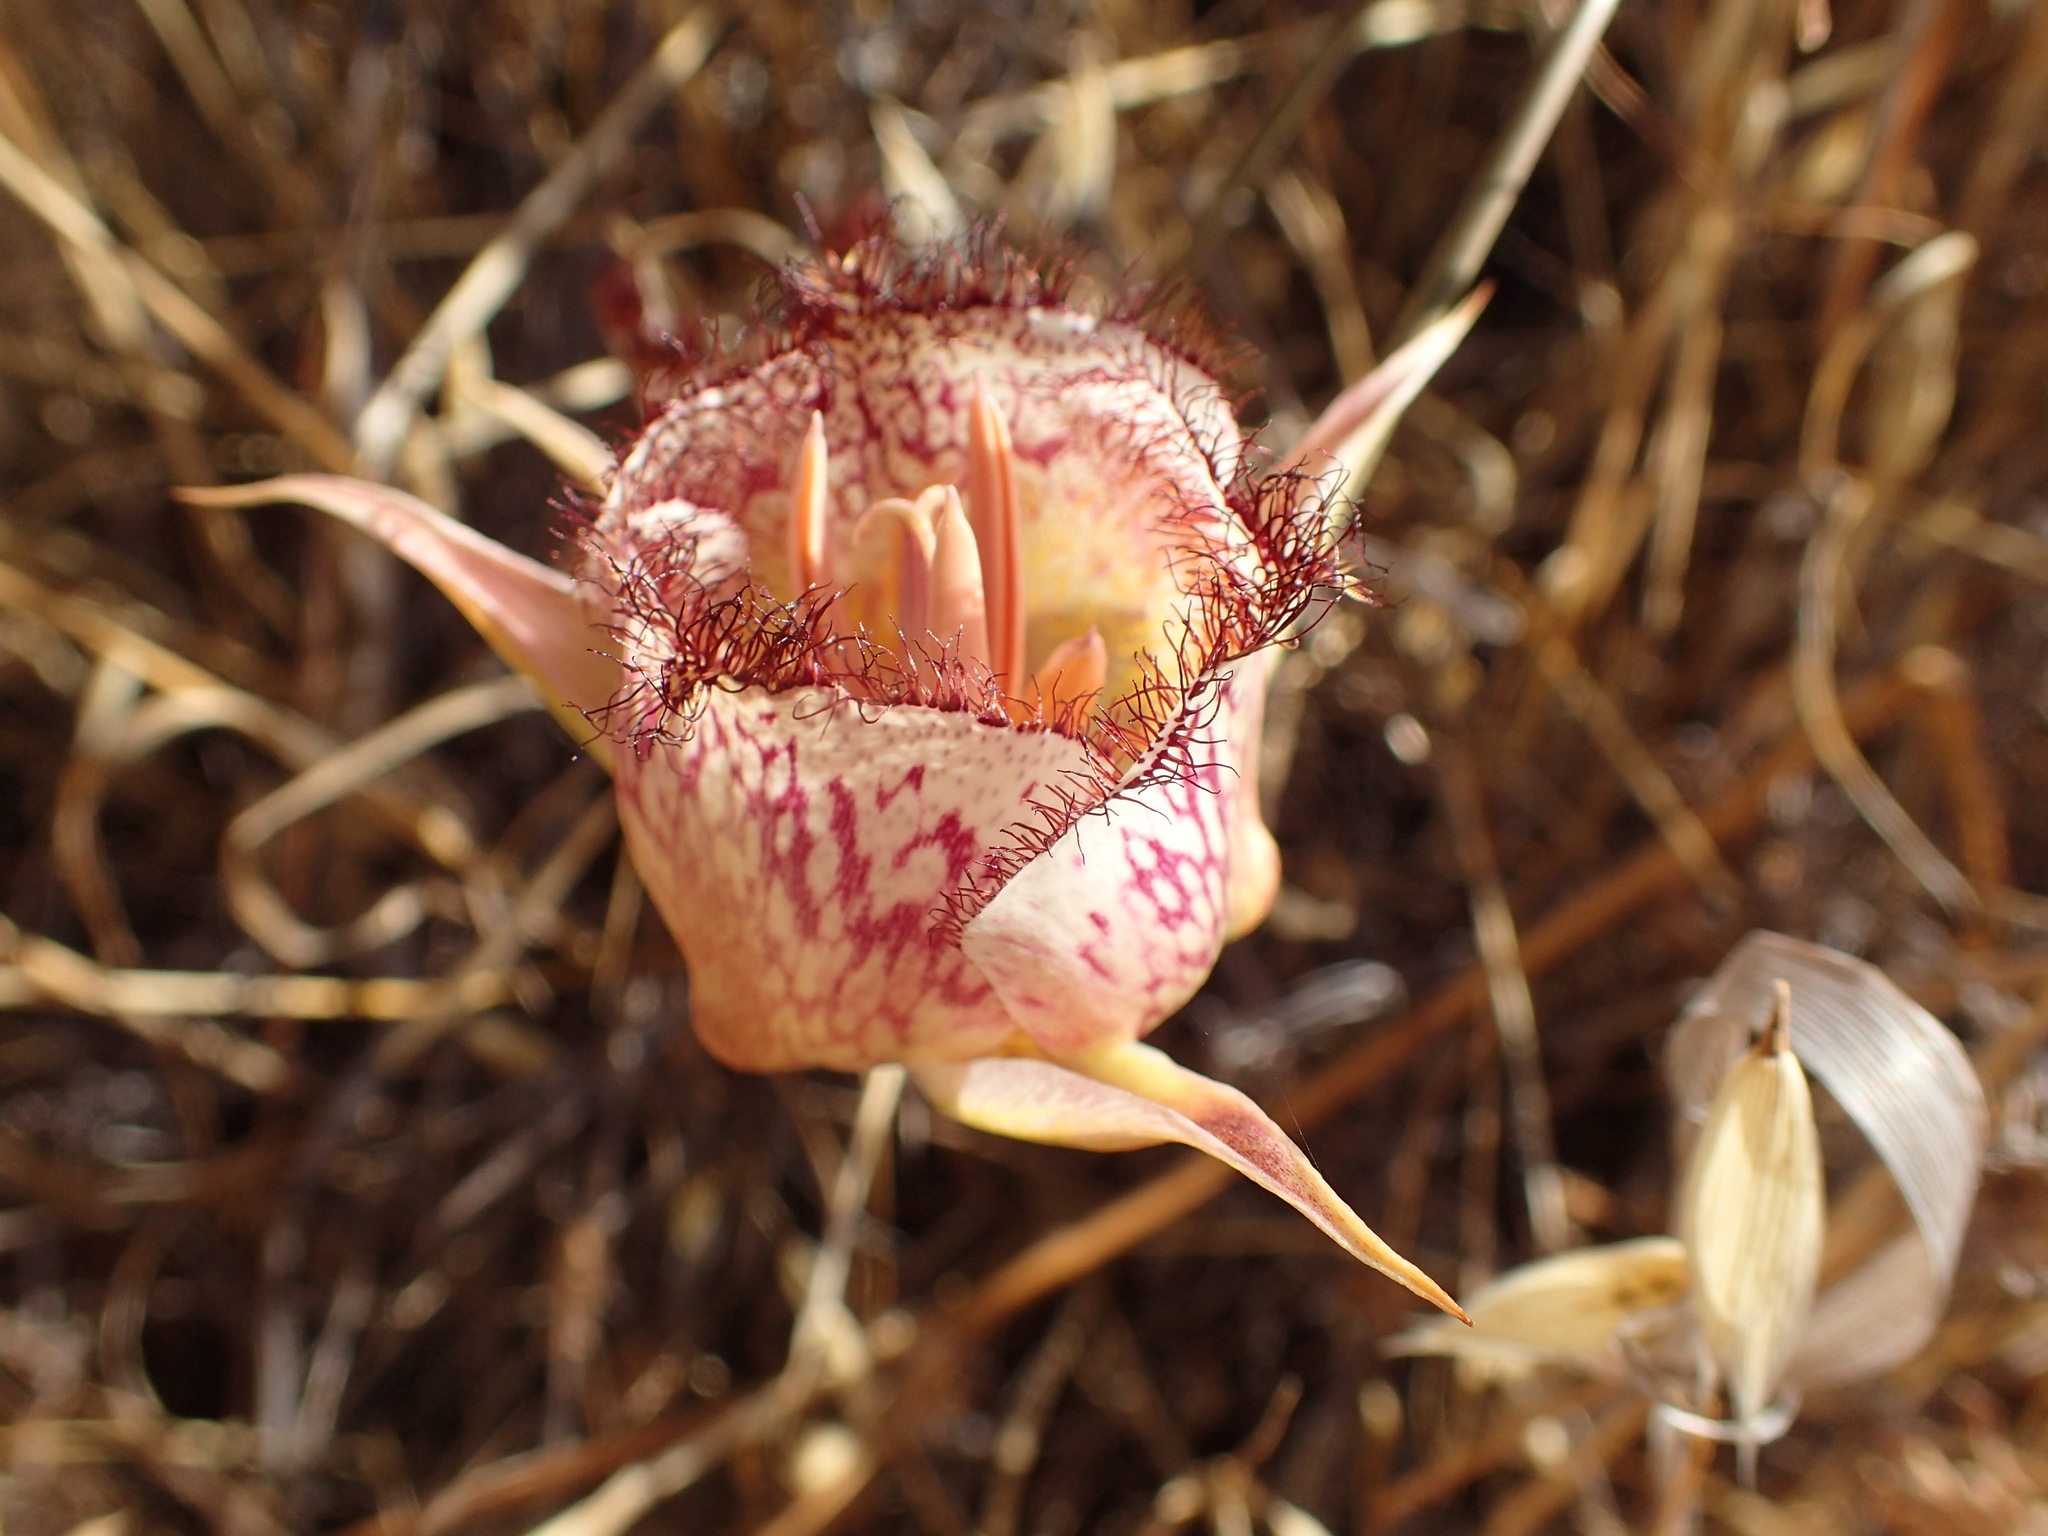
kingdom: Plantae
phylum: Tracheophyta
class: Liliopsida
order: Liliales
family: Liliaceae
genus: Calochortus
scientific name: Calochortus fimbriatus
